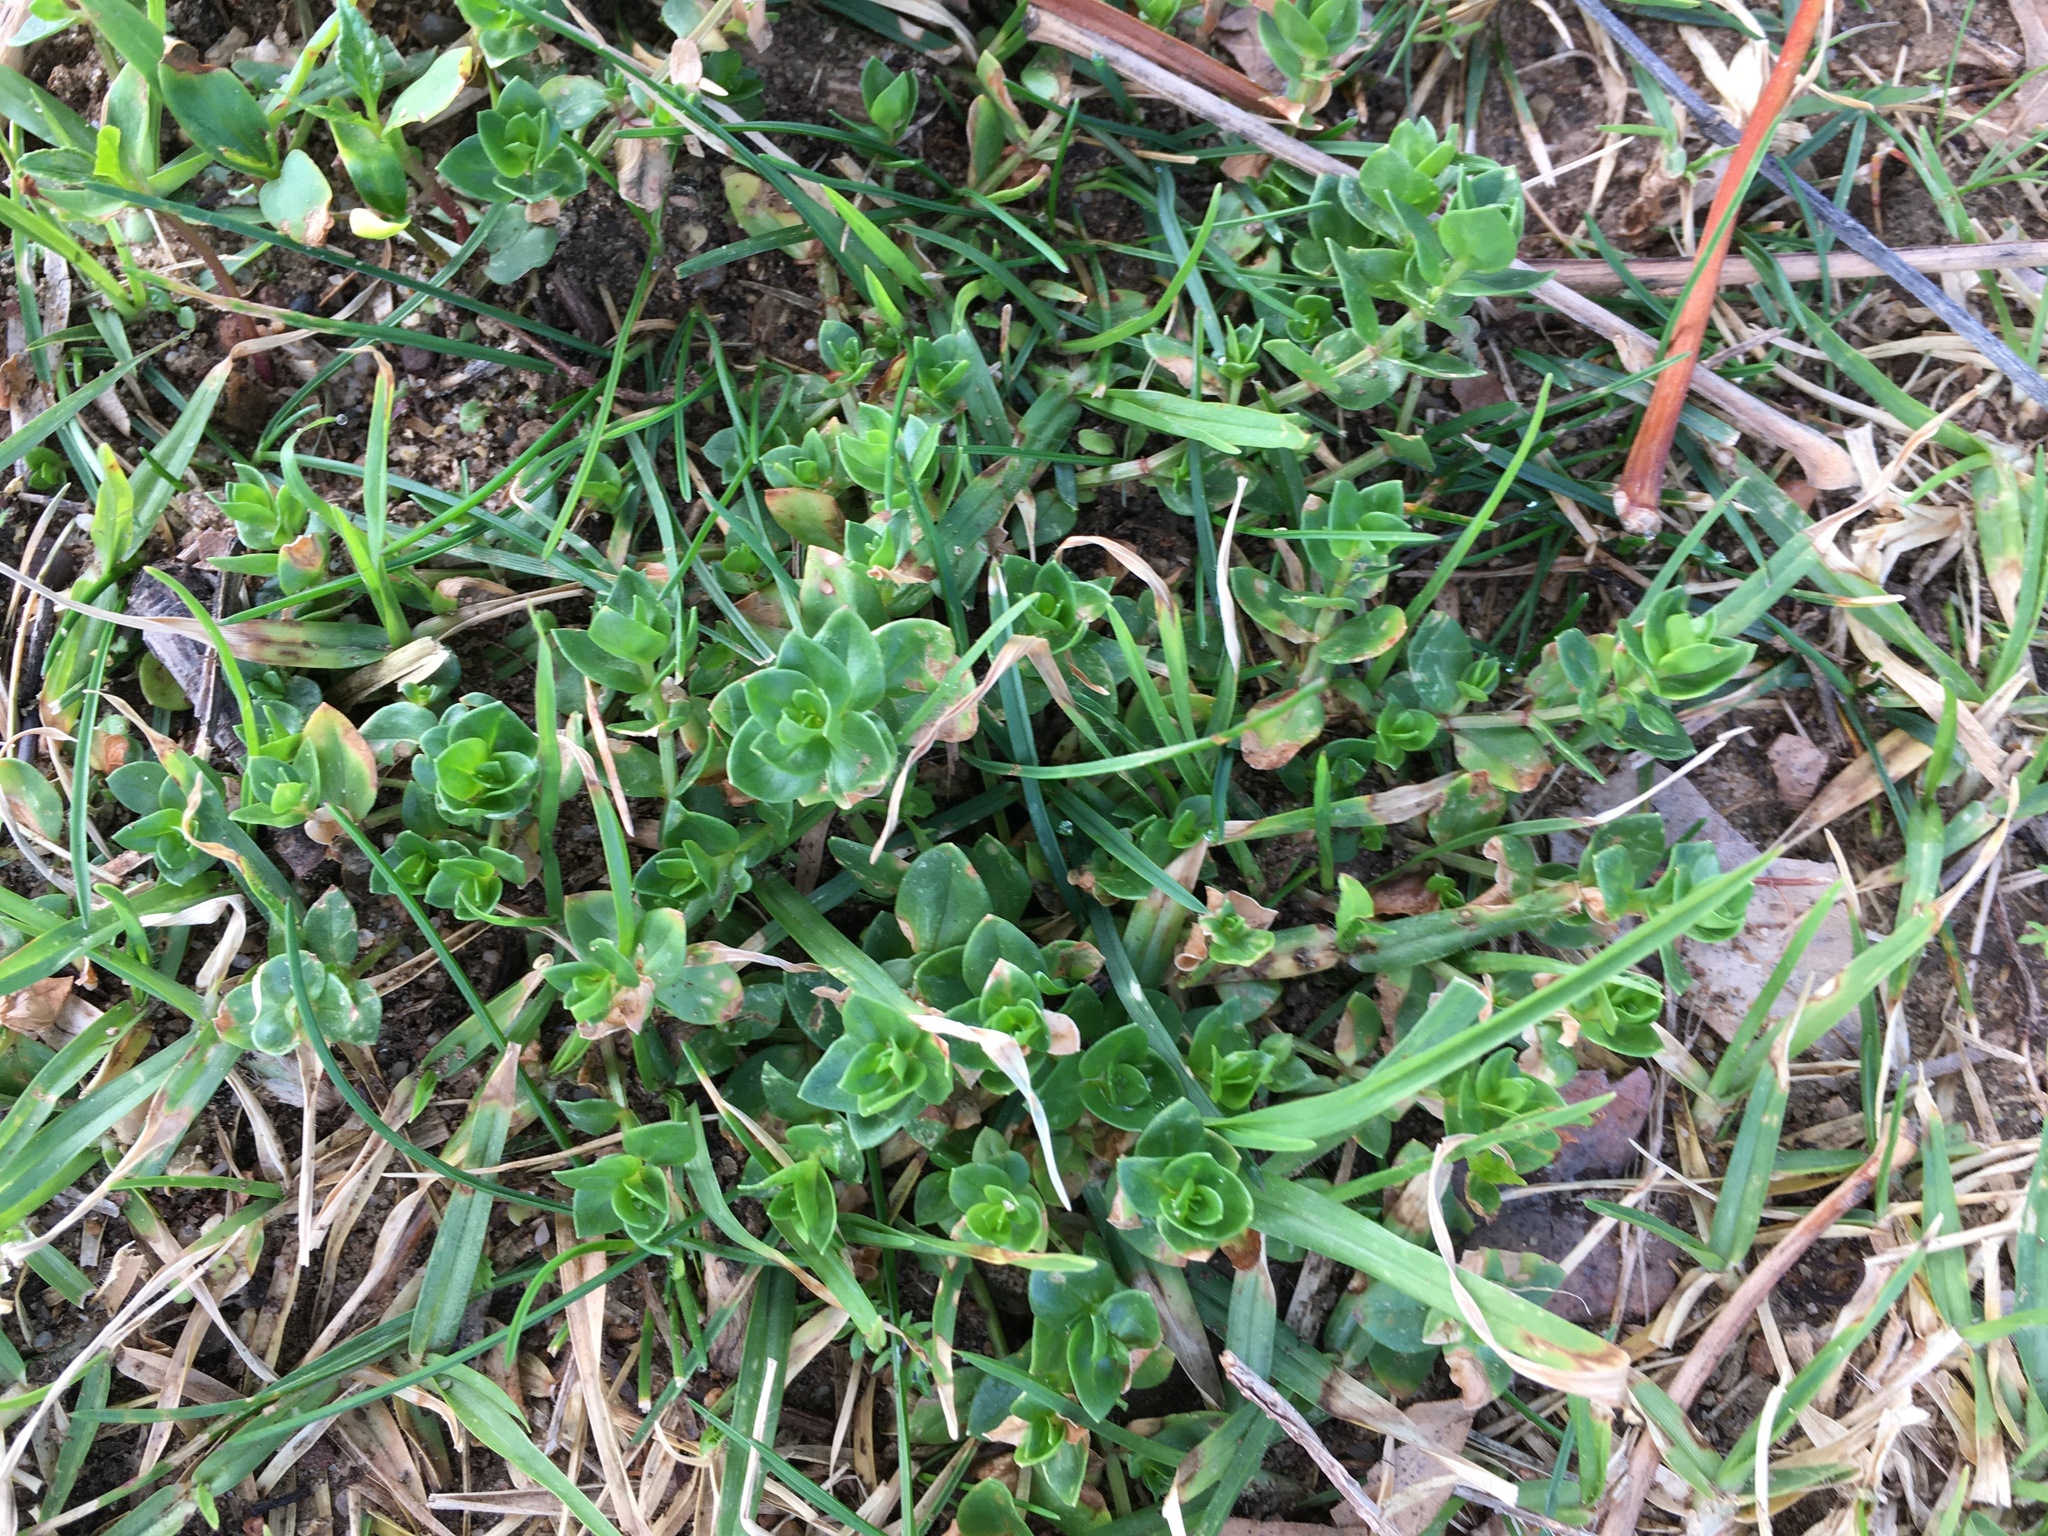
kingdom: Plantae
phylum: Tracheophyta
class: Magnoliopsida
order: Ericales
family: Primulaceae
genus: Lysimachia
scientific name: Lysimachia arvensis
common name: Scarlet pimpernel
